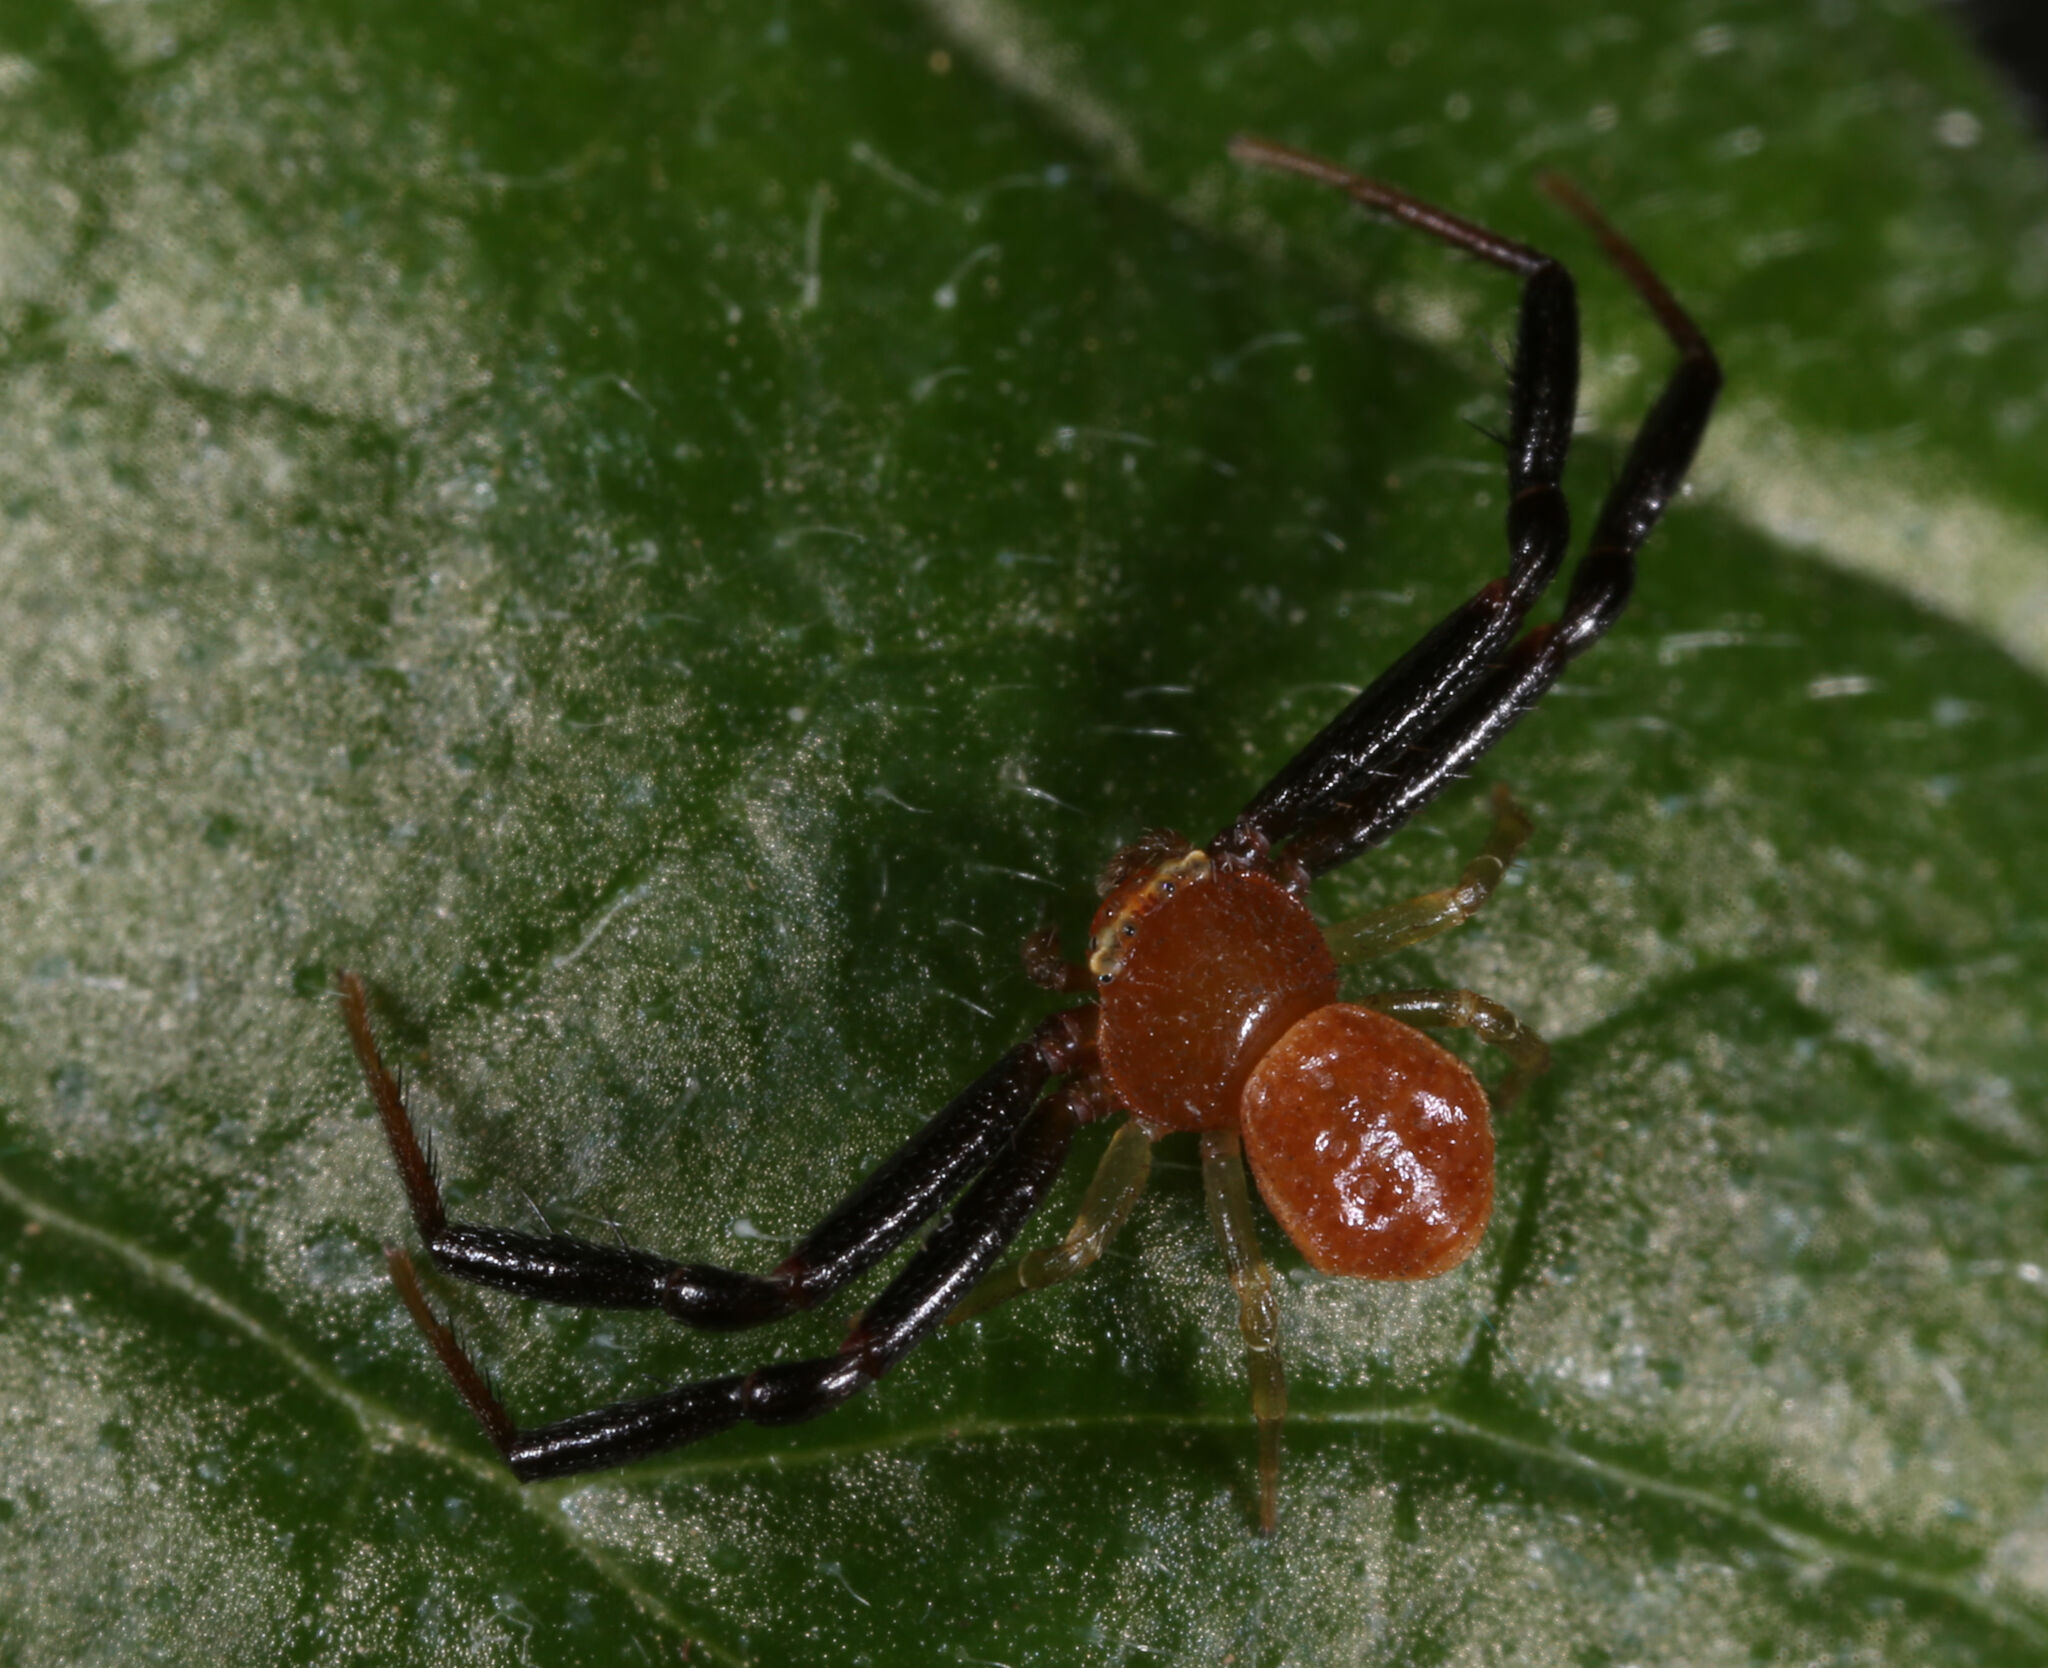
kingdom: Animalia
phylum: Arthropoda
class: Arachnida
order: Araneae
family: Thomisidae
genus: Misumenoides
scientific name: Misumenoides quetzaltocatl
